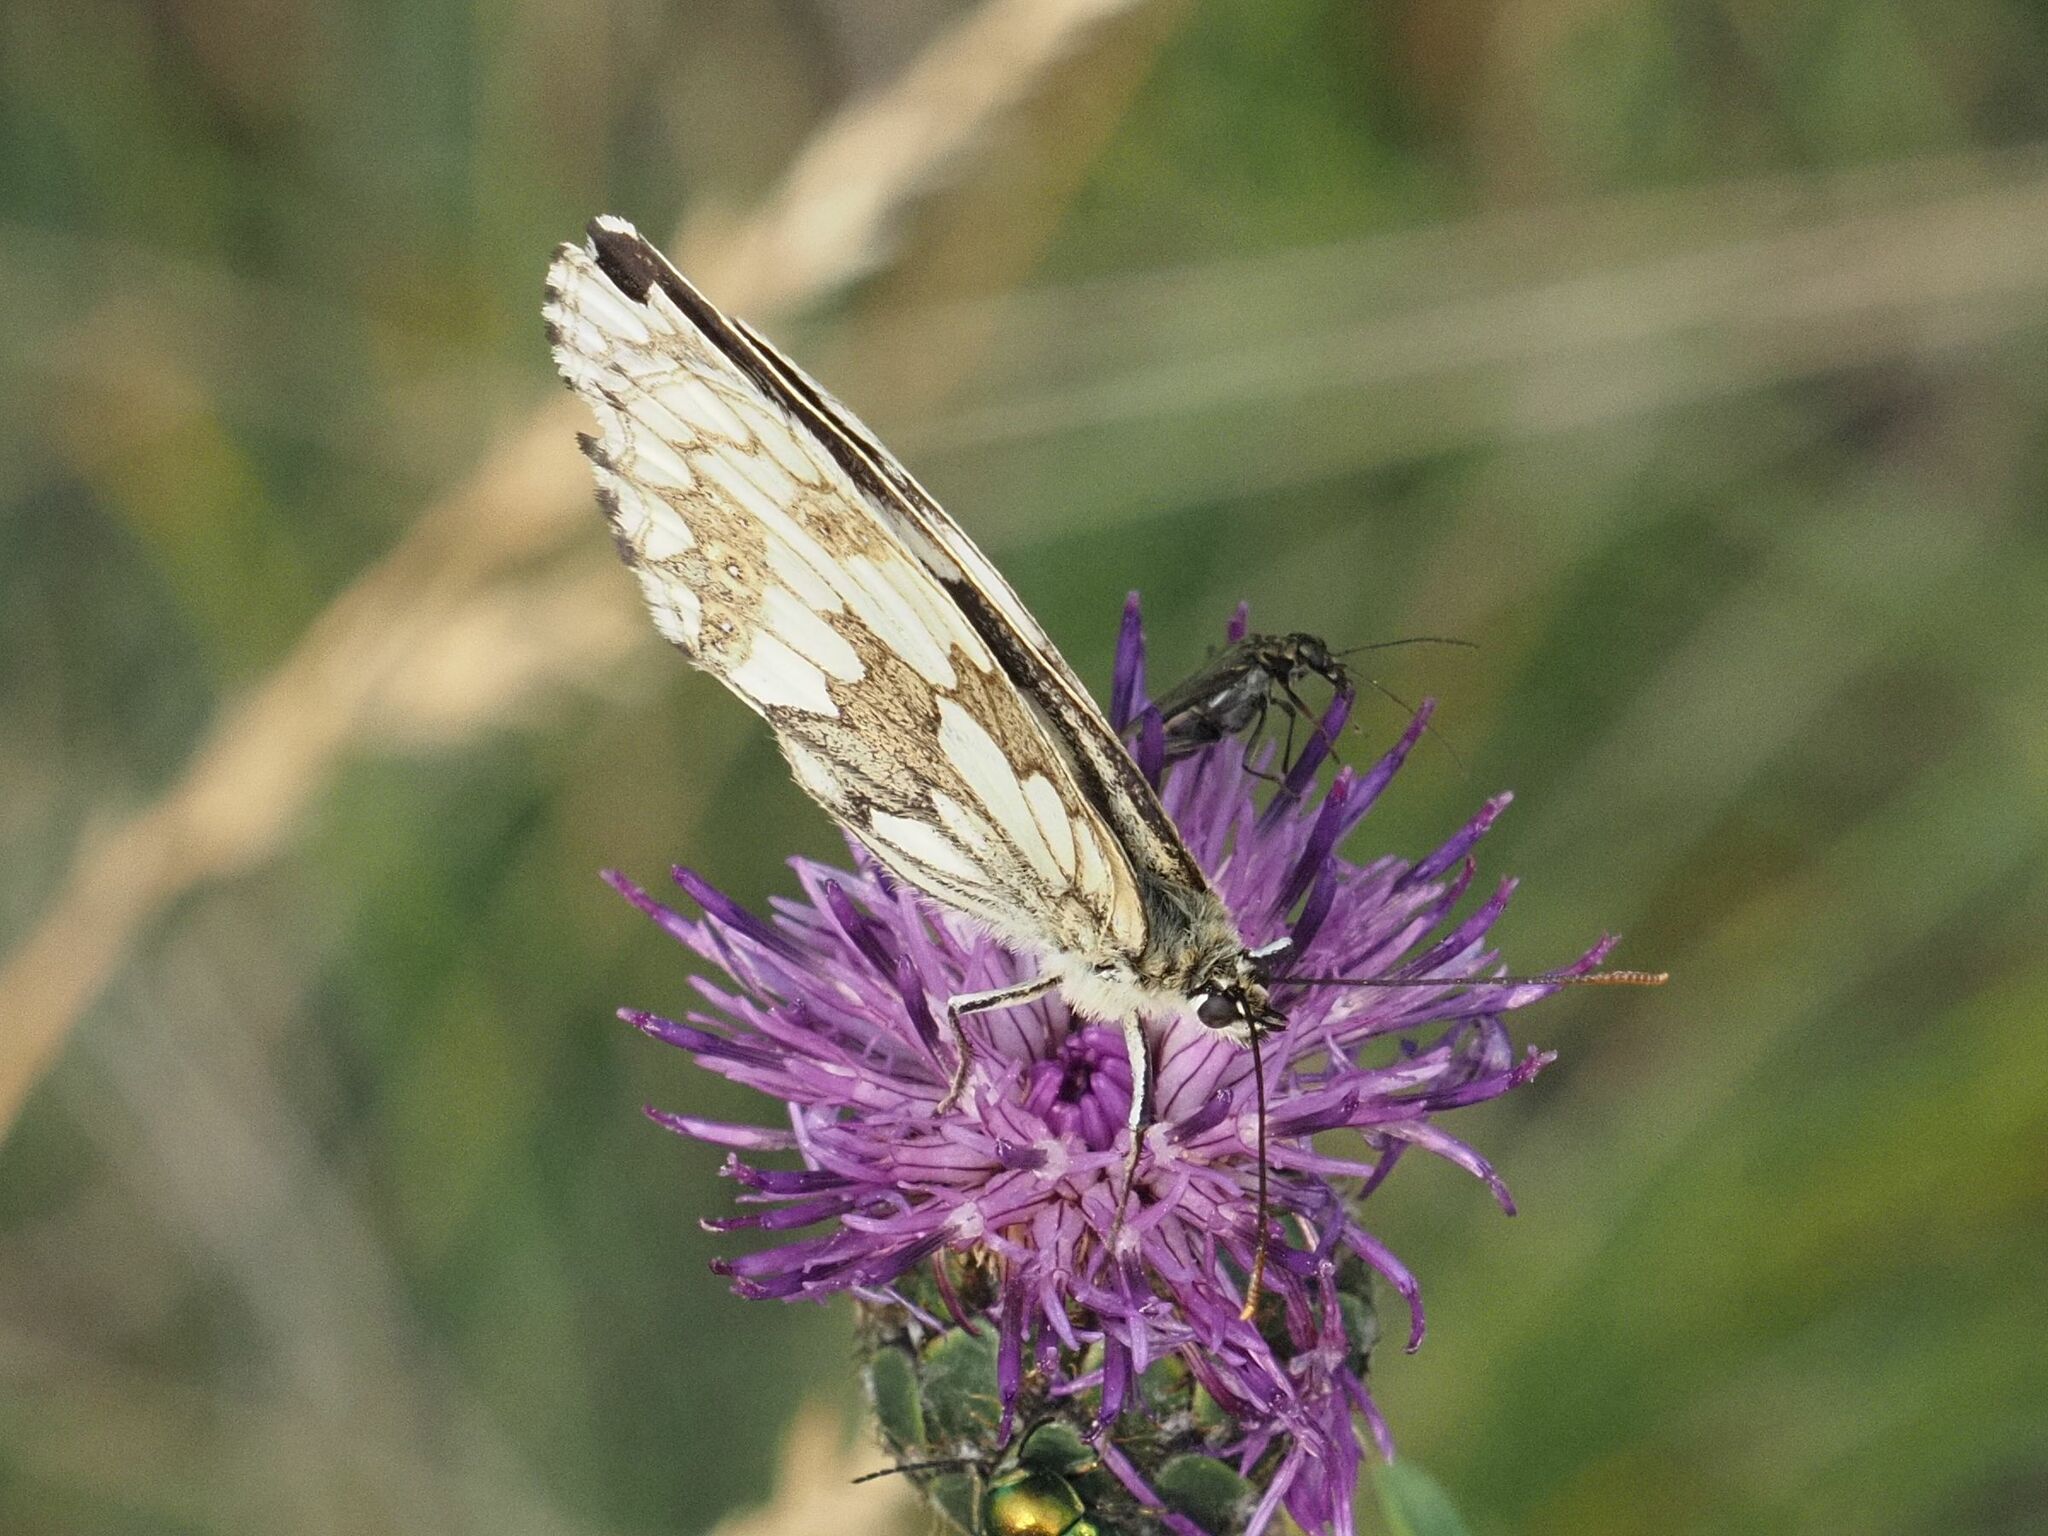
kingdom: Animalia
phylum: Arthropoda
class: Insecta
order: Lepidoptera
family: Nymphalidae
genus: Melanargia
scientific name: Melanargia galathea
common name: Marbled white
